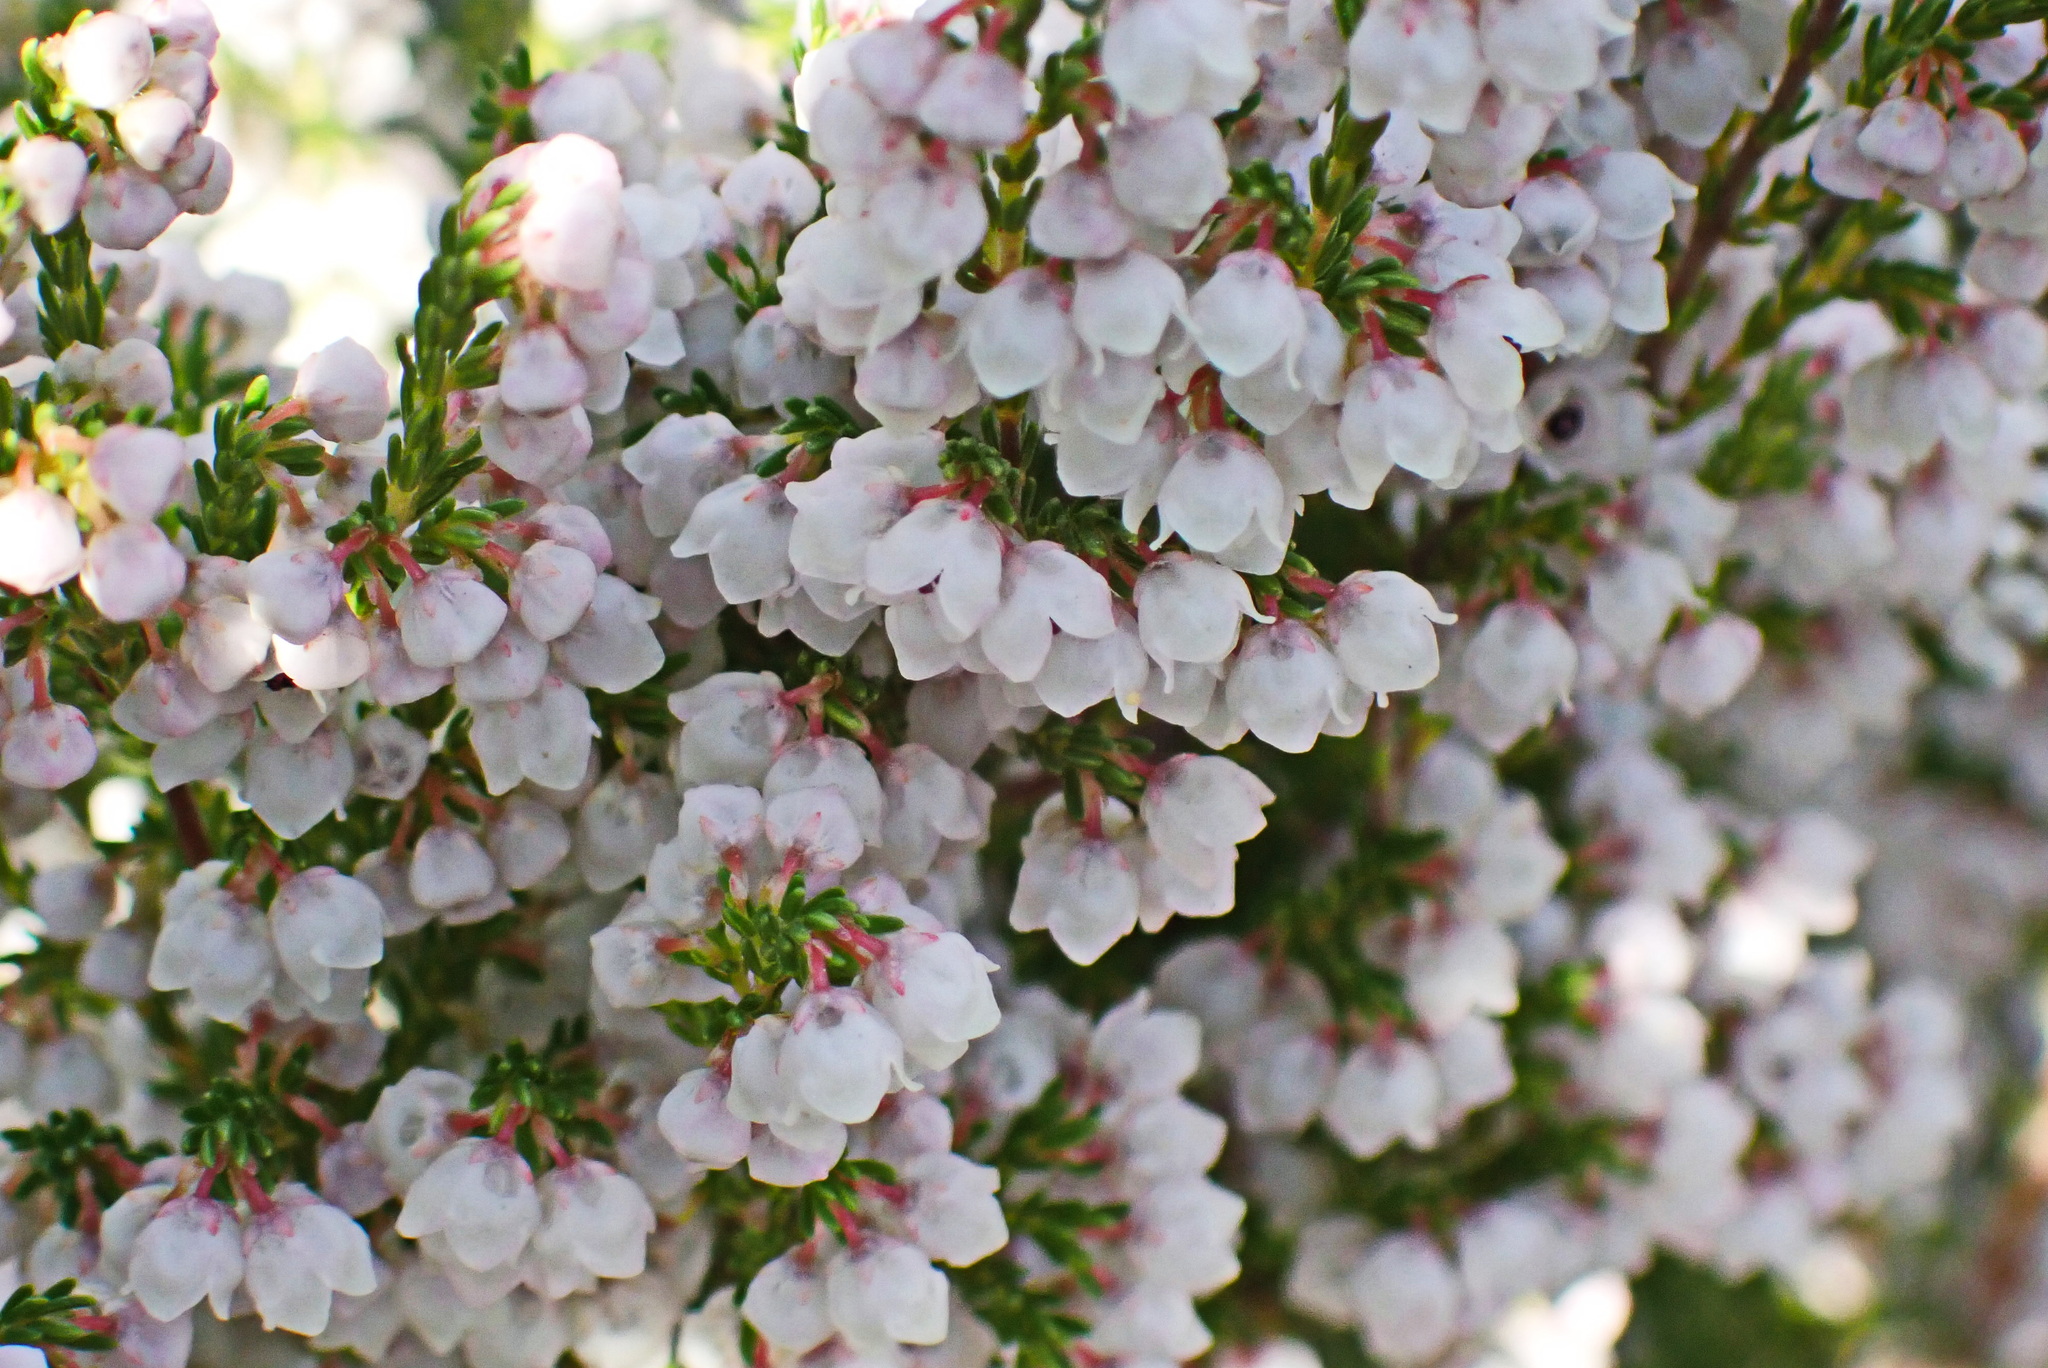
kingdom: Plantae
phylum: Tracheophyta
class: Magnoliopsida
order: Ericales
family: Ericaceae
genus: Erica
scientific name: Erica quadrangularis
